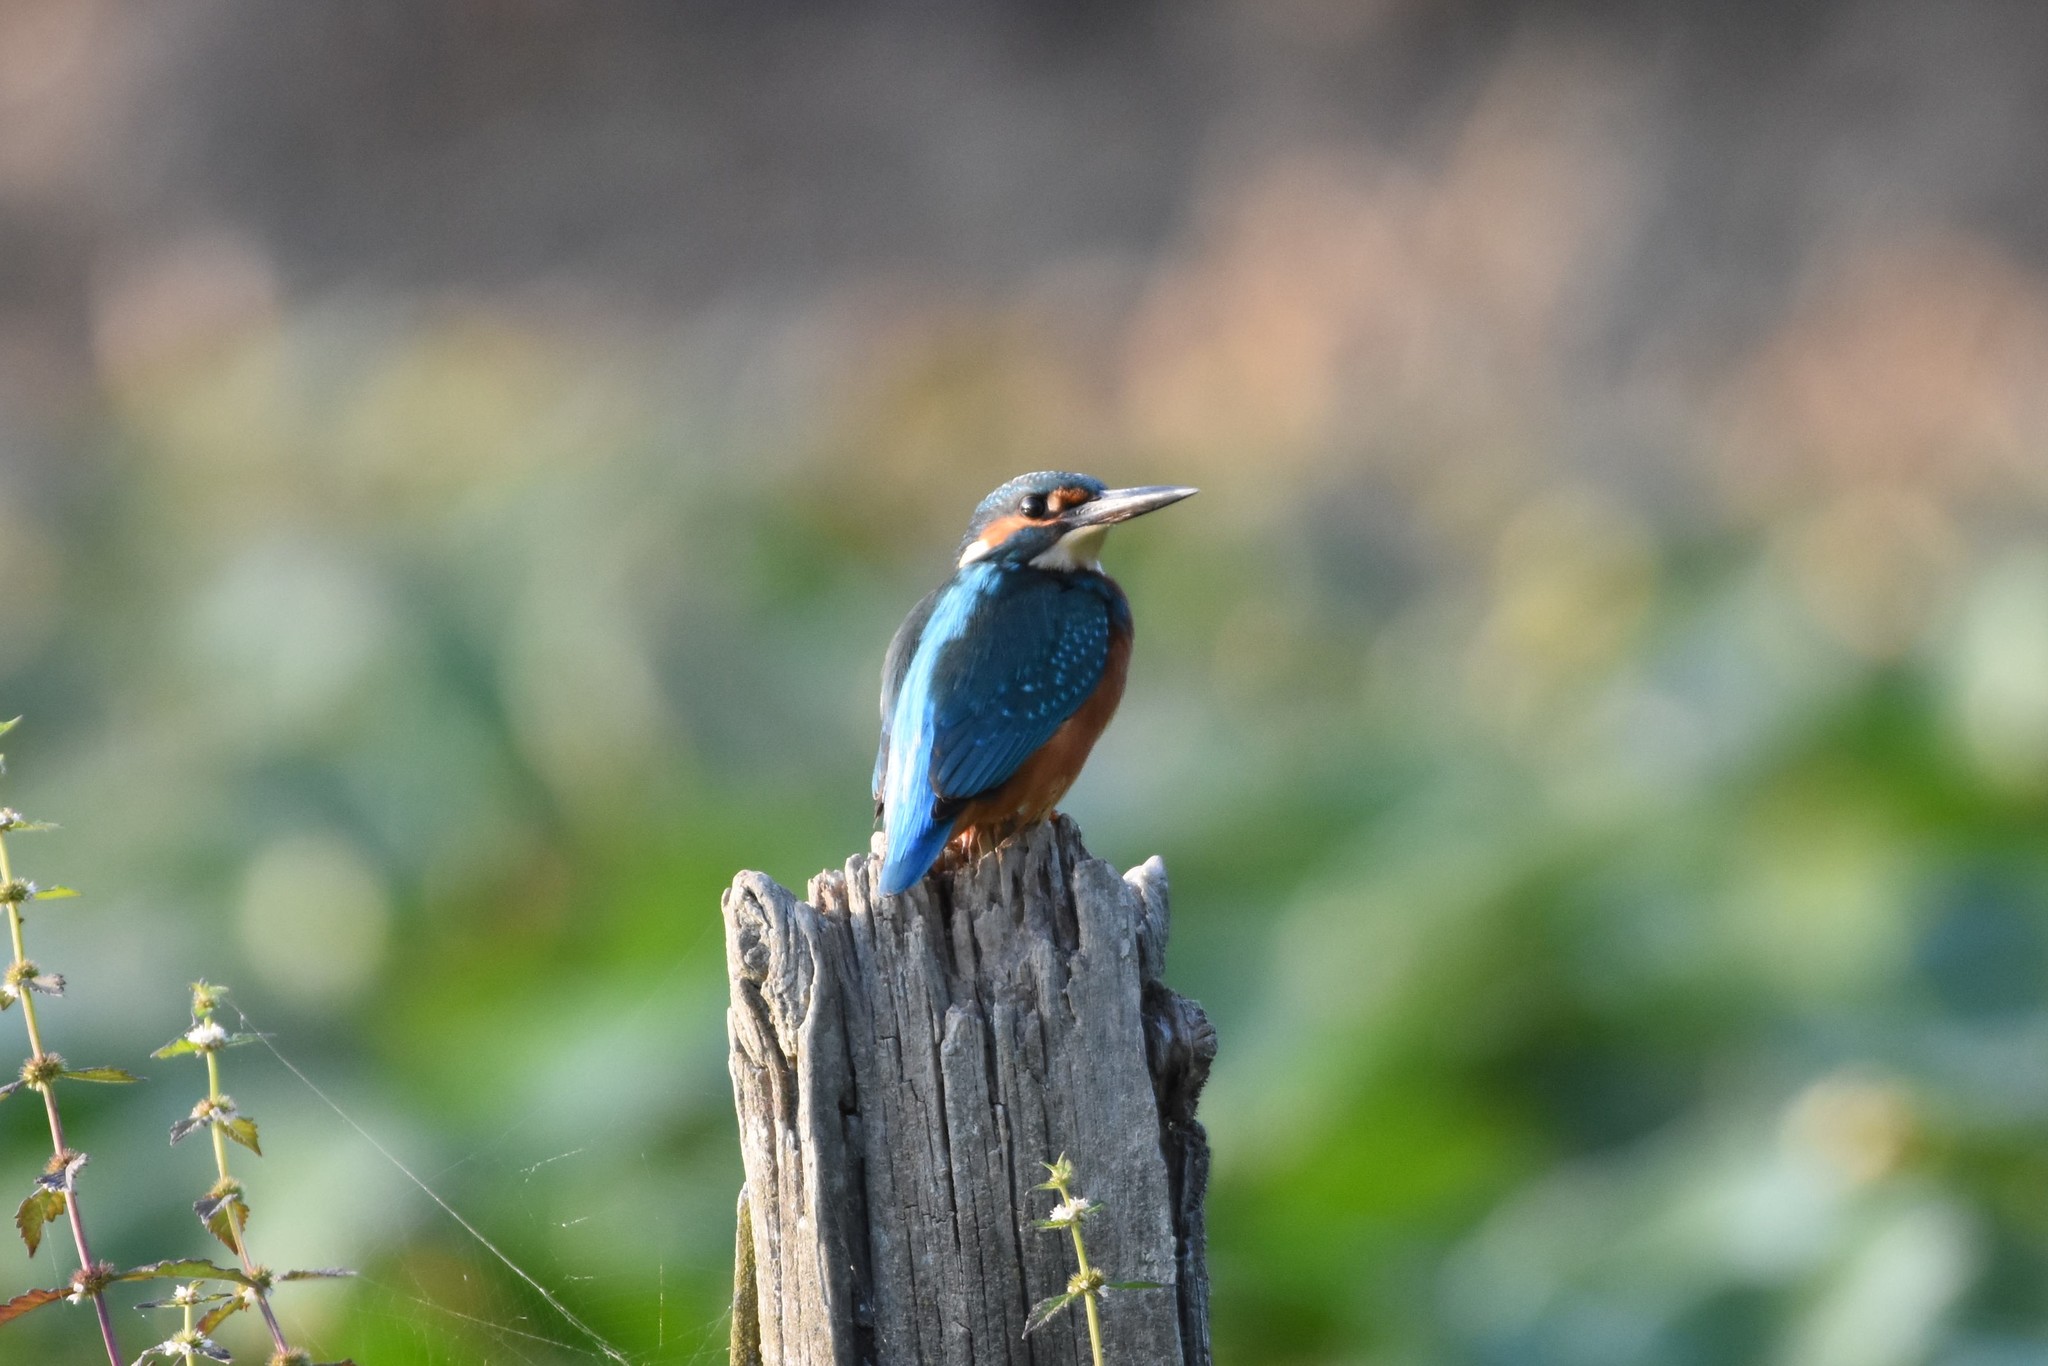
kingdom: Animalia
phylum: Chordata
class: Aves
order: Coraciiformes
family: Alcedinidae
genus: Alcedo
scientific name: Alcedo atthis
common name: Common kingfisher
